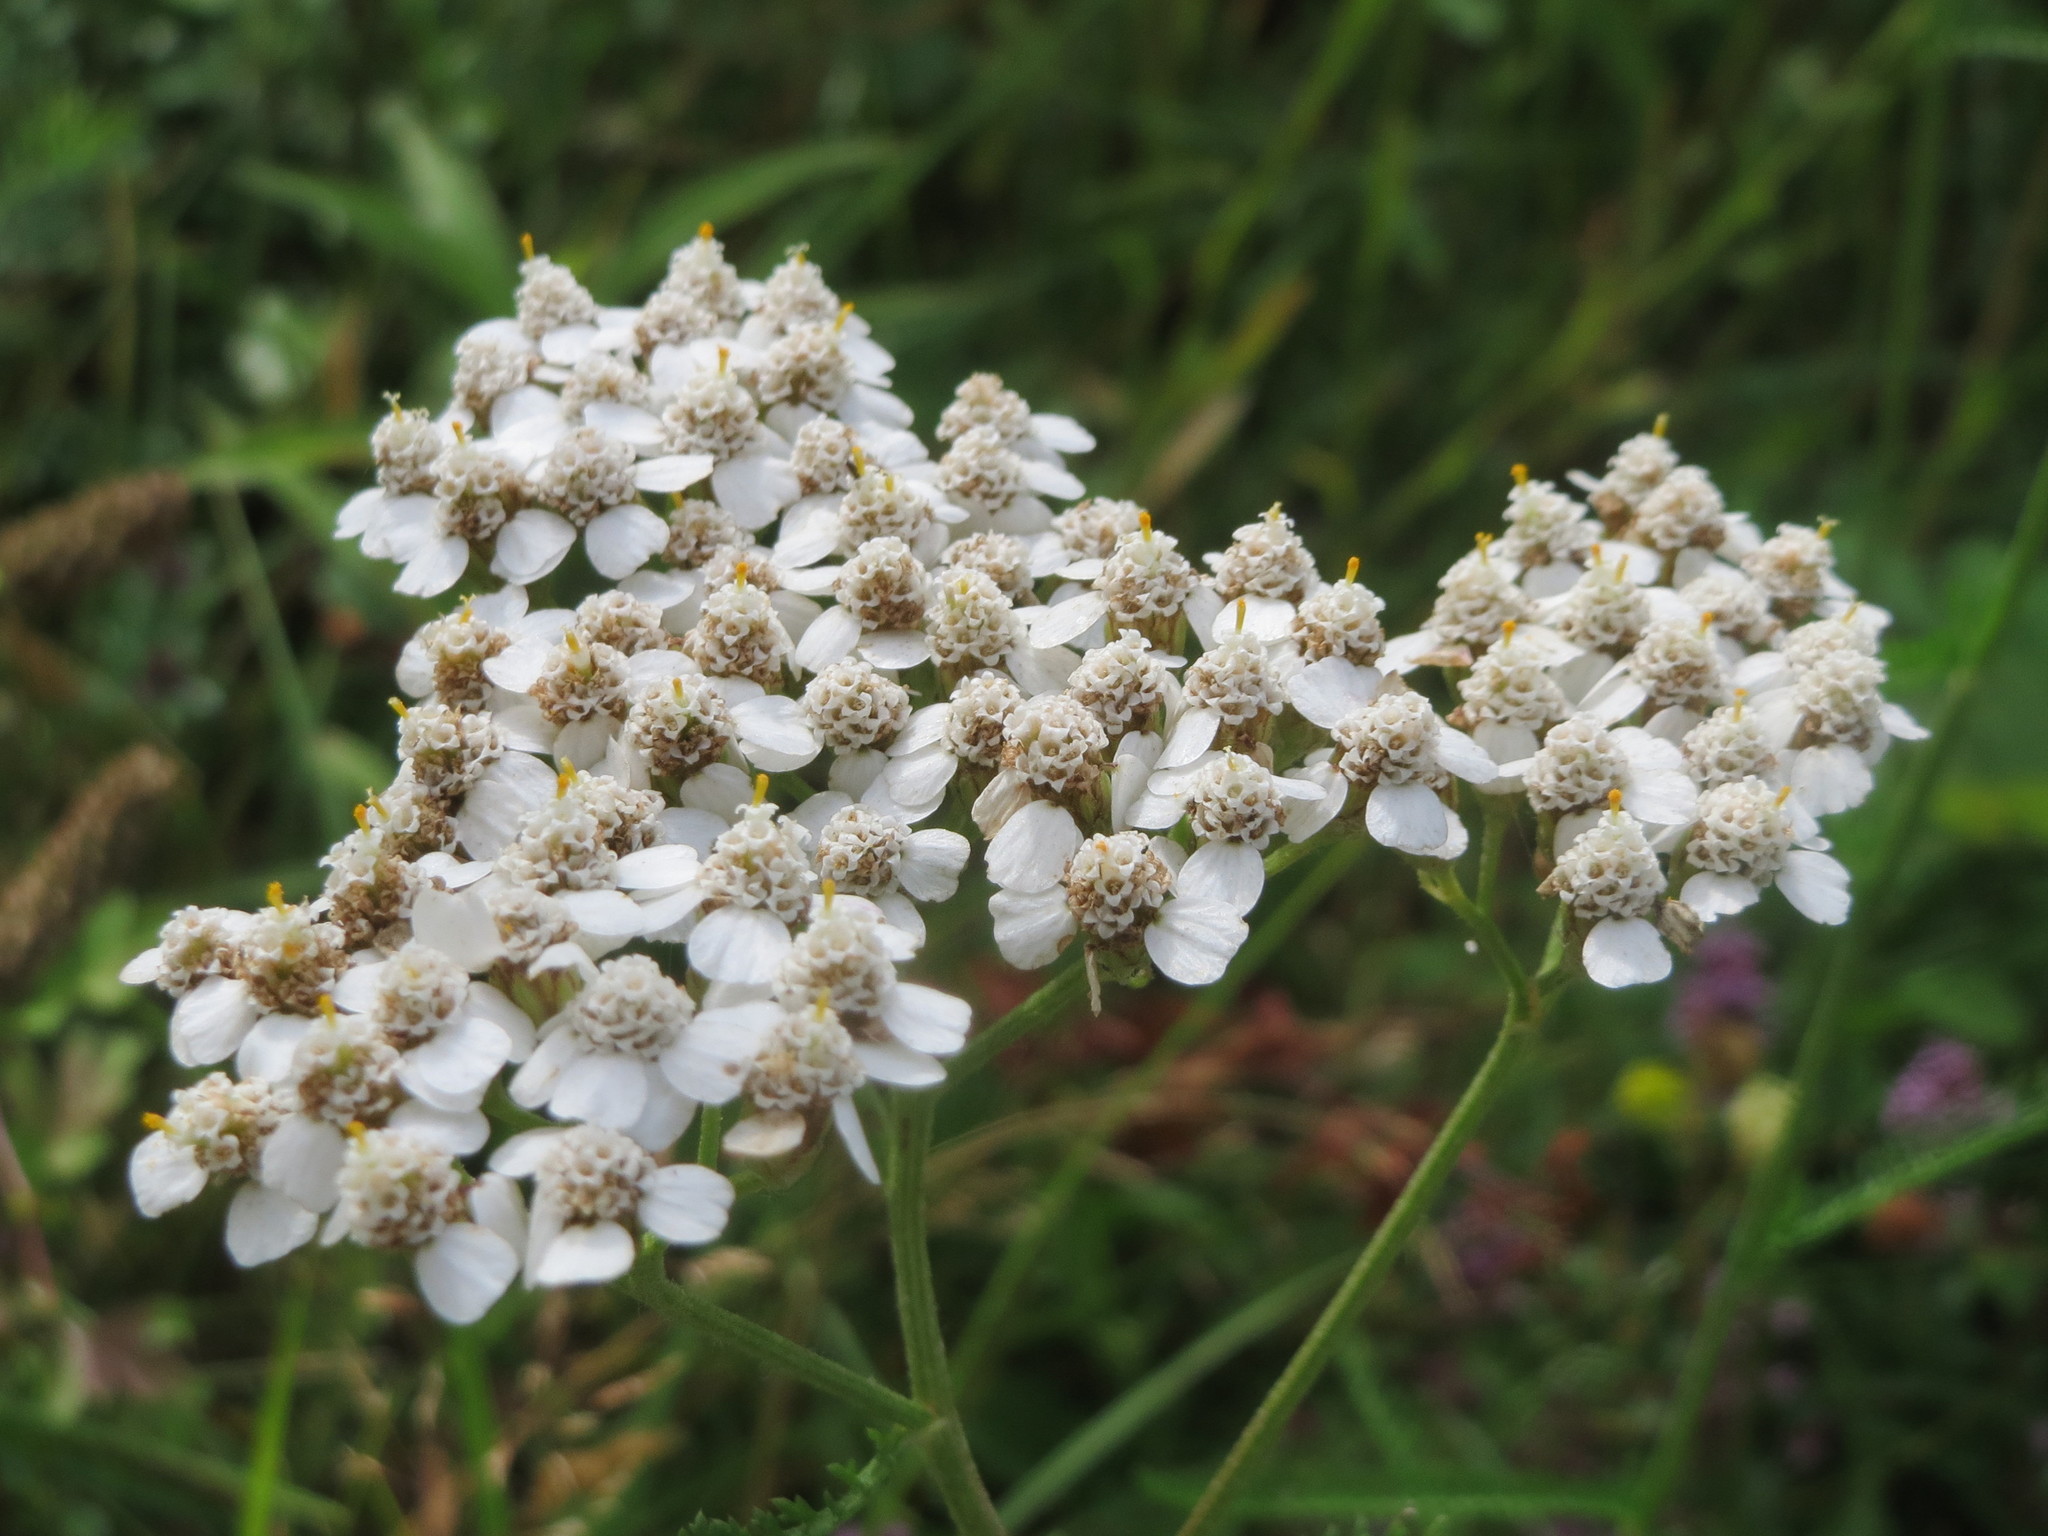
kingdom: Plantae
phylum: Tracheophyta
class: Magnoliopsida
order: Asterales
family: Asteraceae
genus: Achillea
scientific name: Achillea
